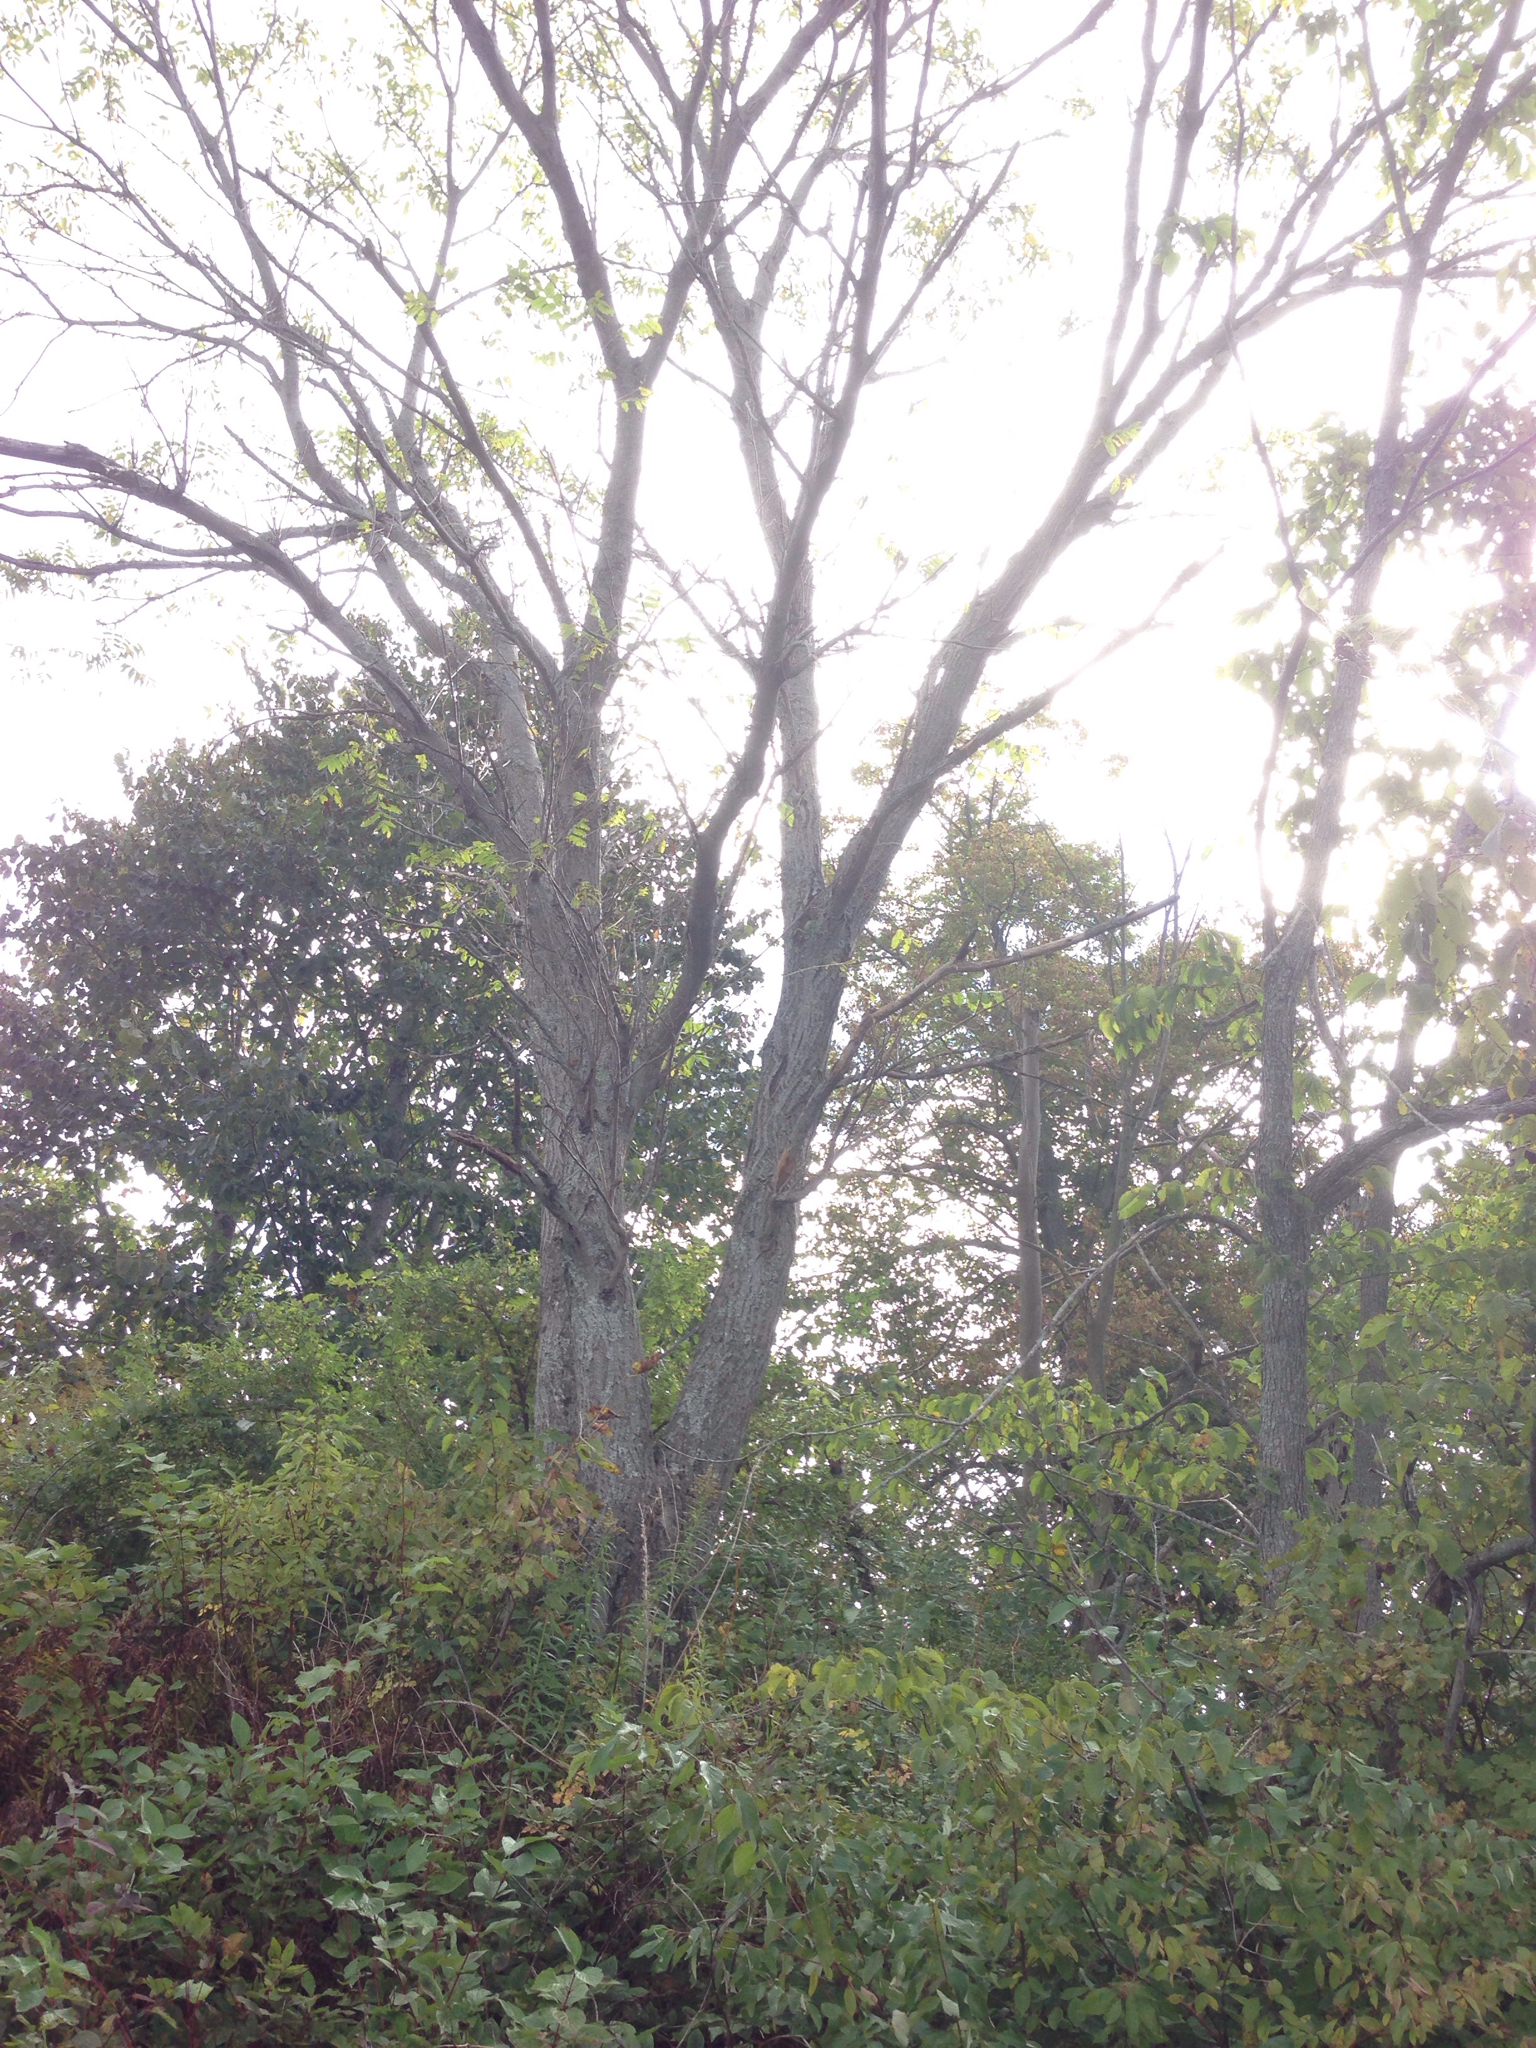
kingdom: Plantae
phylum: Tracheophyta
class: Magnoliopsida
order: Fagales
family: Juglandaceae
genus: Juglans
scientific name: Juglans cinerea
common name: Butternut
